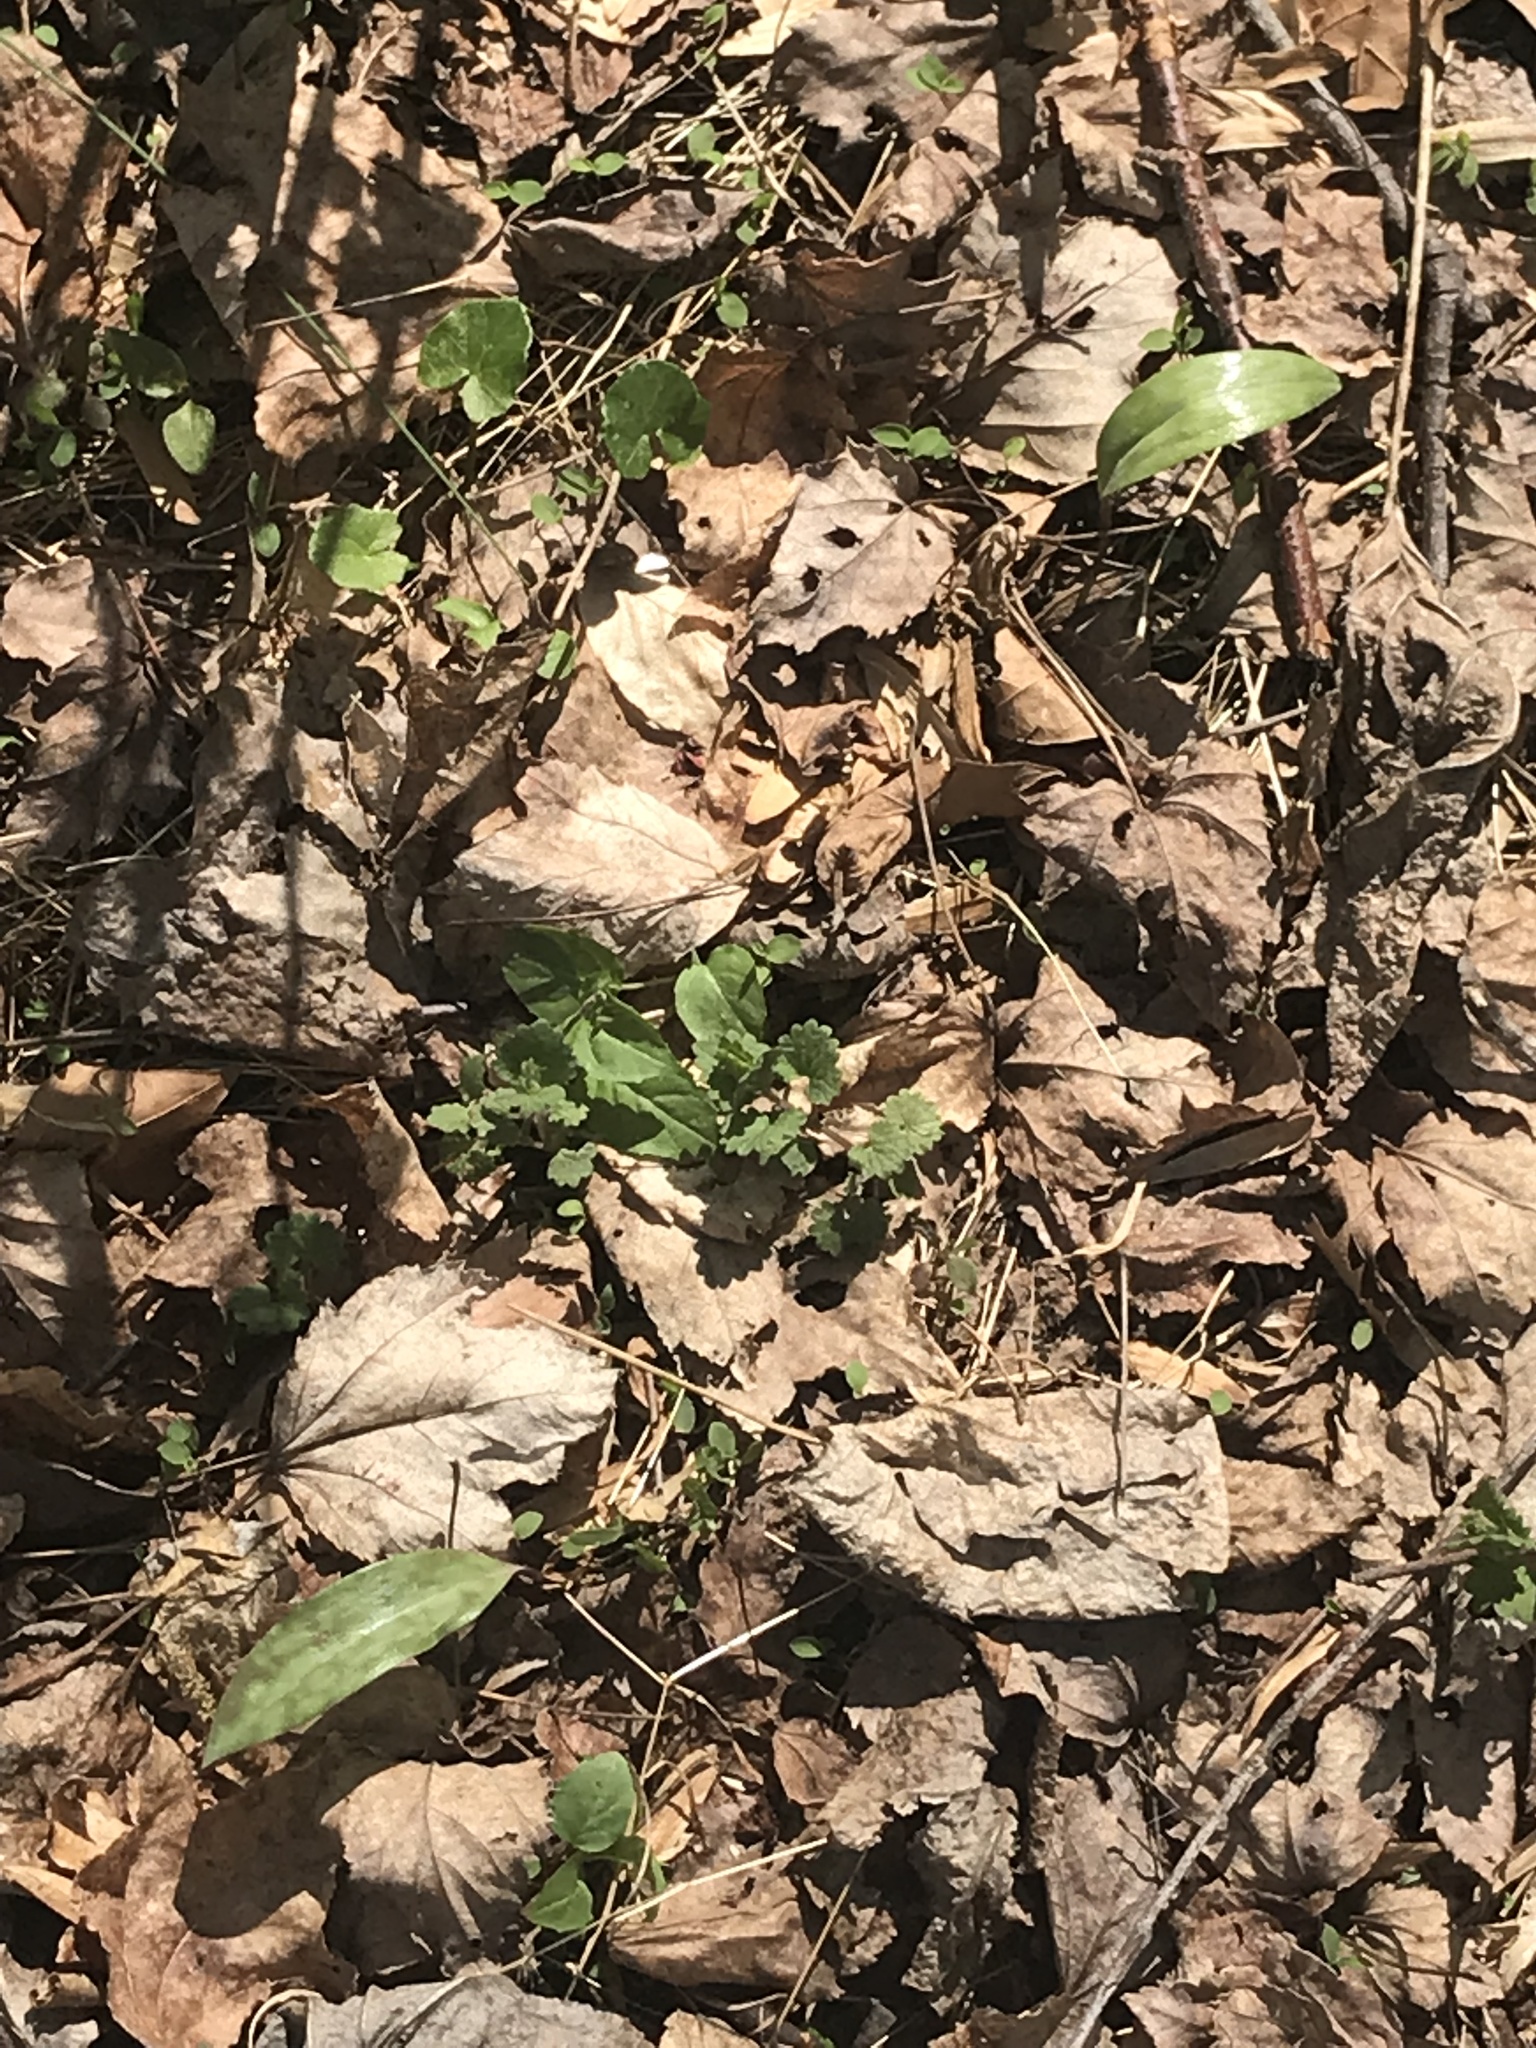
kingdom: Plantae
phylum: Tracheophyta
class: Liliopsida
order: Liliales
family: Liliaceae
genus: Erythronium
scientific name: Erythronium americanum
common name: Yellow adder's-tongue
